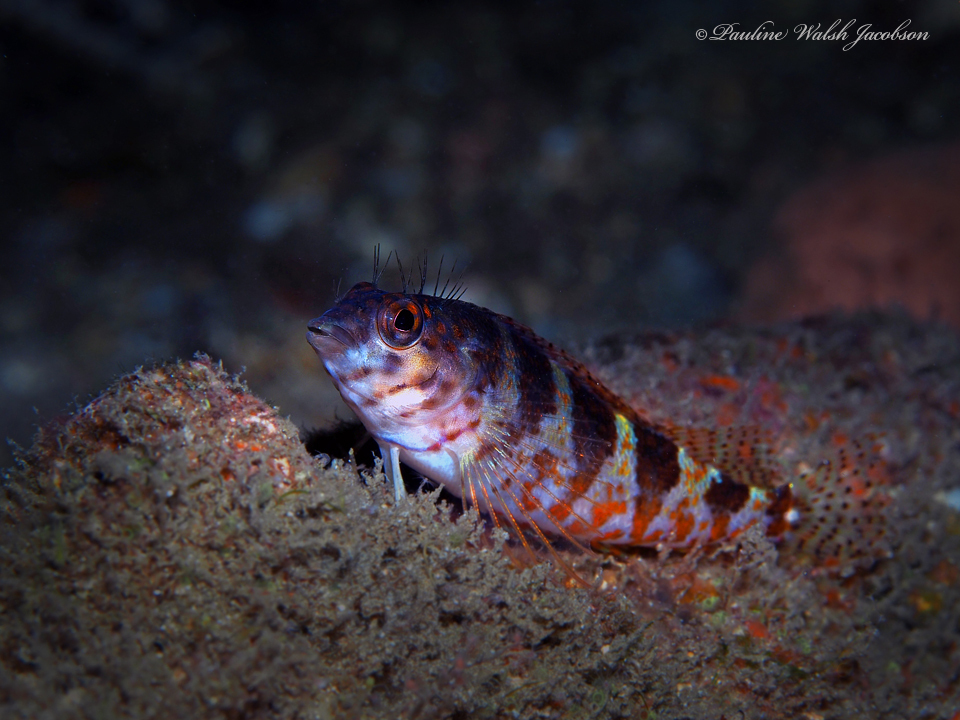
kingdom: Animalia
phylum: Chordata
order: Perciformes
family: Labrisomidae
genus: Malacoctenus
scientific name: Malacoctenus triangulatus
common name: Saddled blenny
